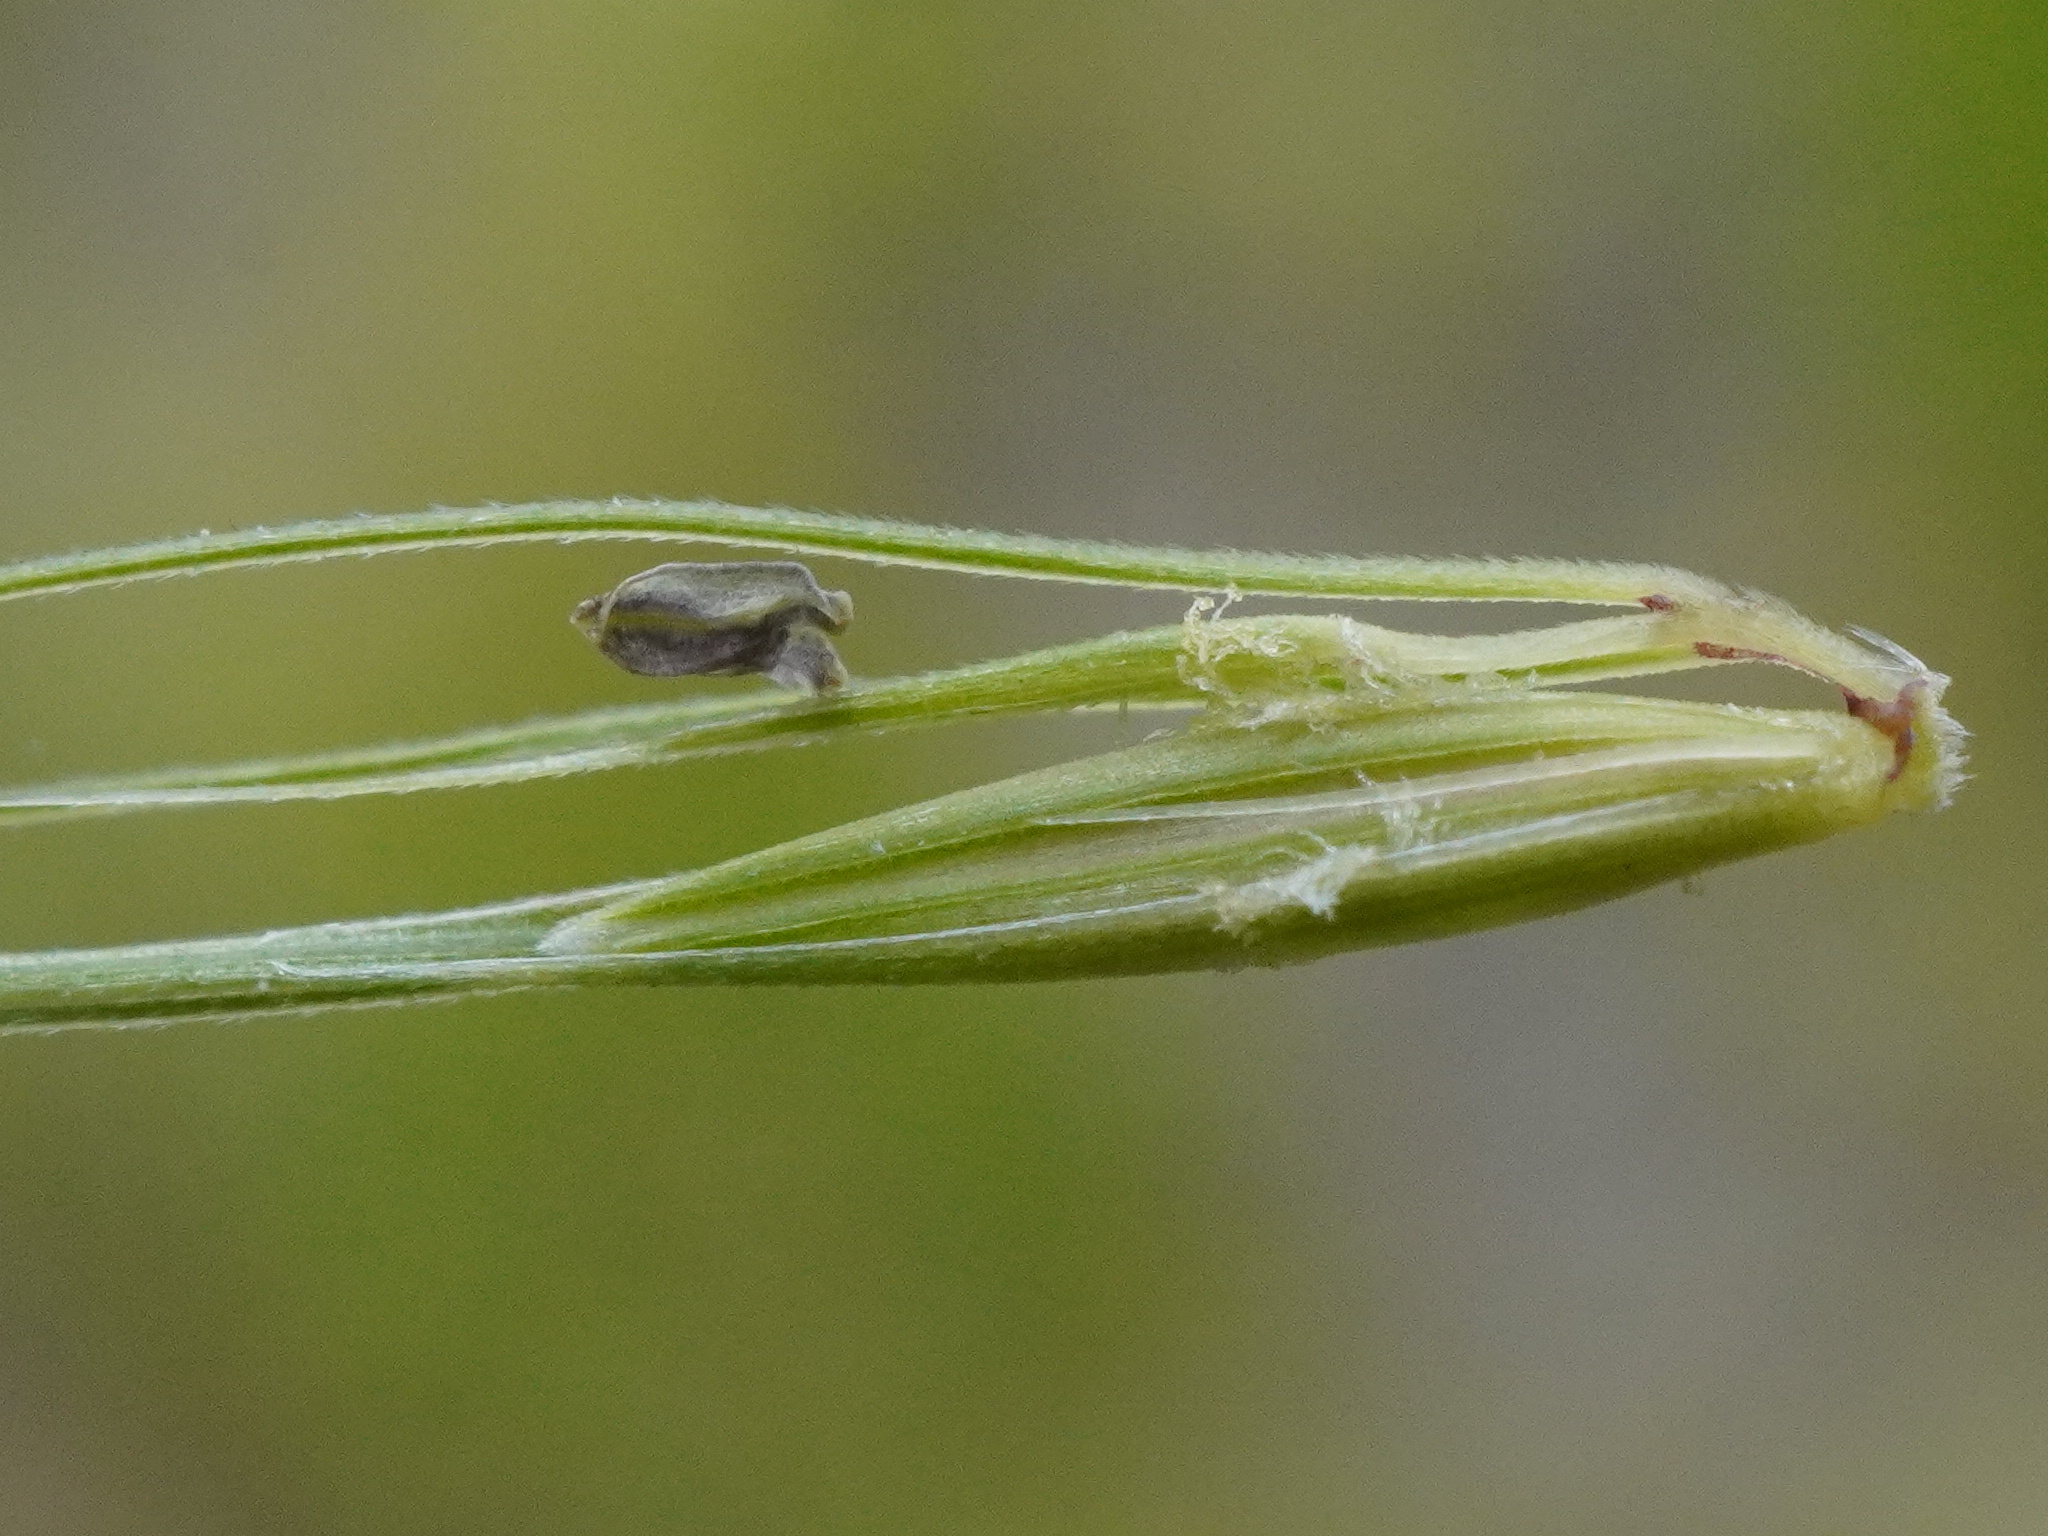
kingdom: Plantae
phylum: Tracheophyta
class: Liliopsida
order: Poales
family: Poaceae
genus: Hordeum
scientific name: Hordeum jubatum
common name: Foxtail barley
